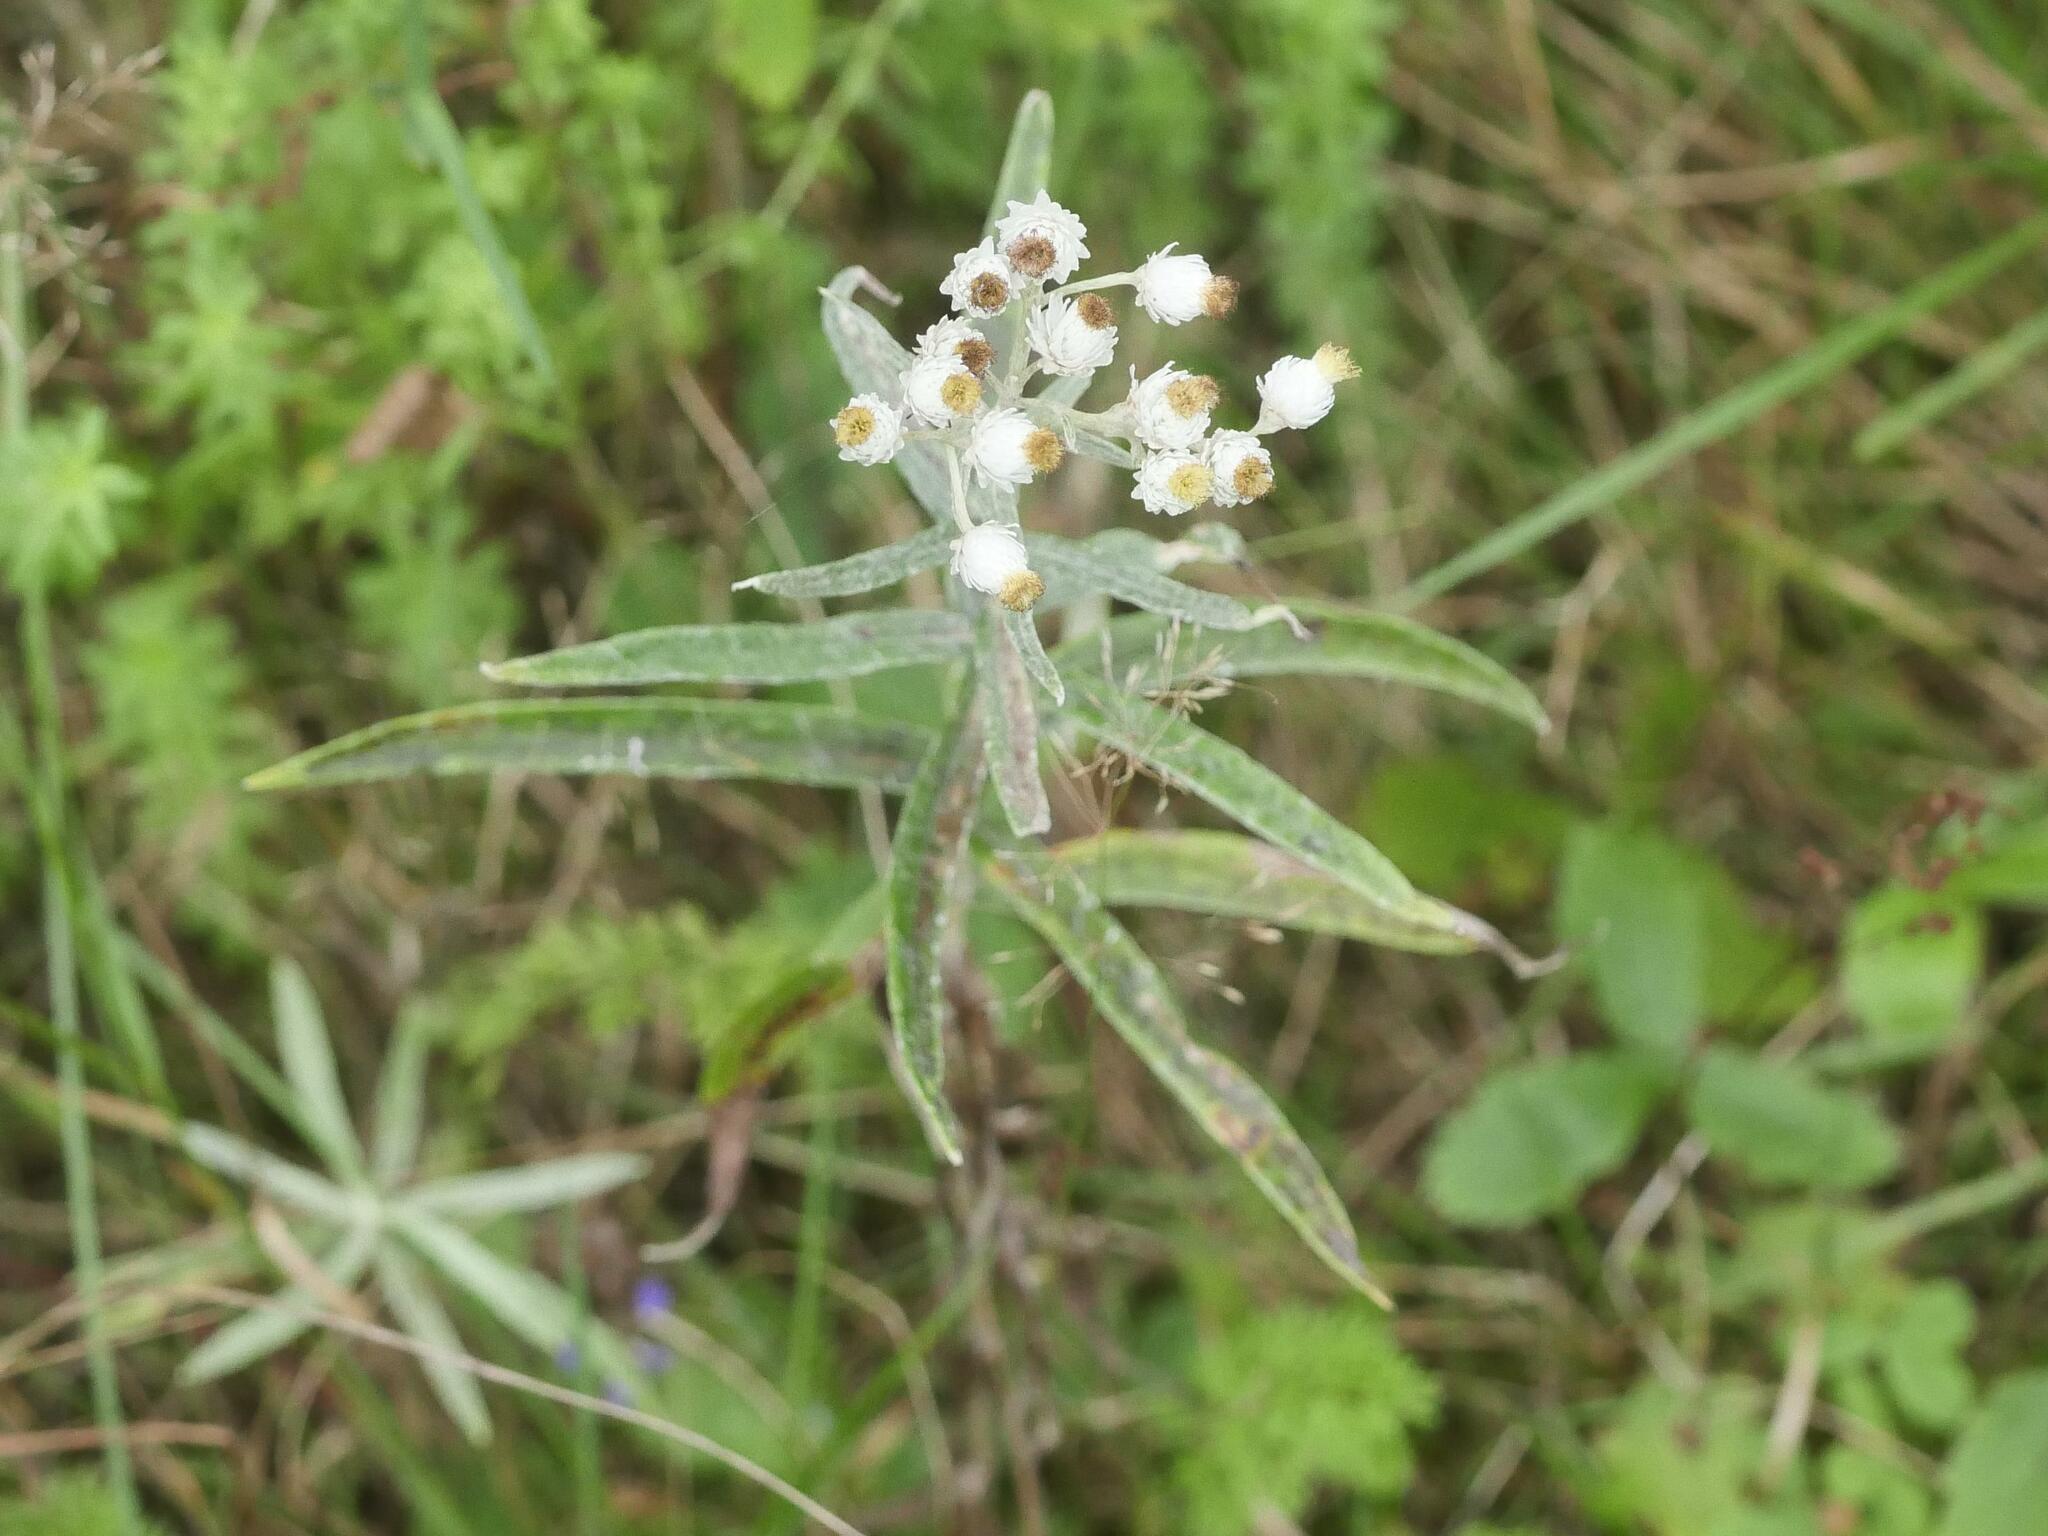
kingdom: Plantae
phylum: Tracheophyta
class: Magnoliopsida
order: Asterales
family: Asteraceae
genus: Anaphalis
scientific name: Anaphalis margaritacea
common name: Pearly everlasting
